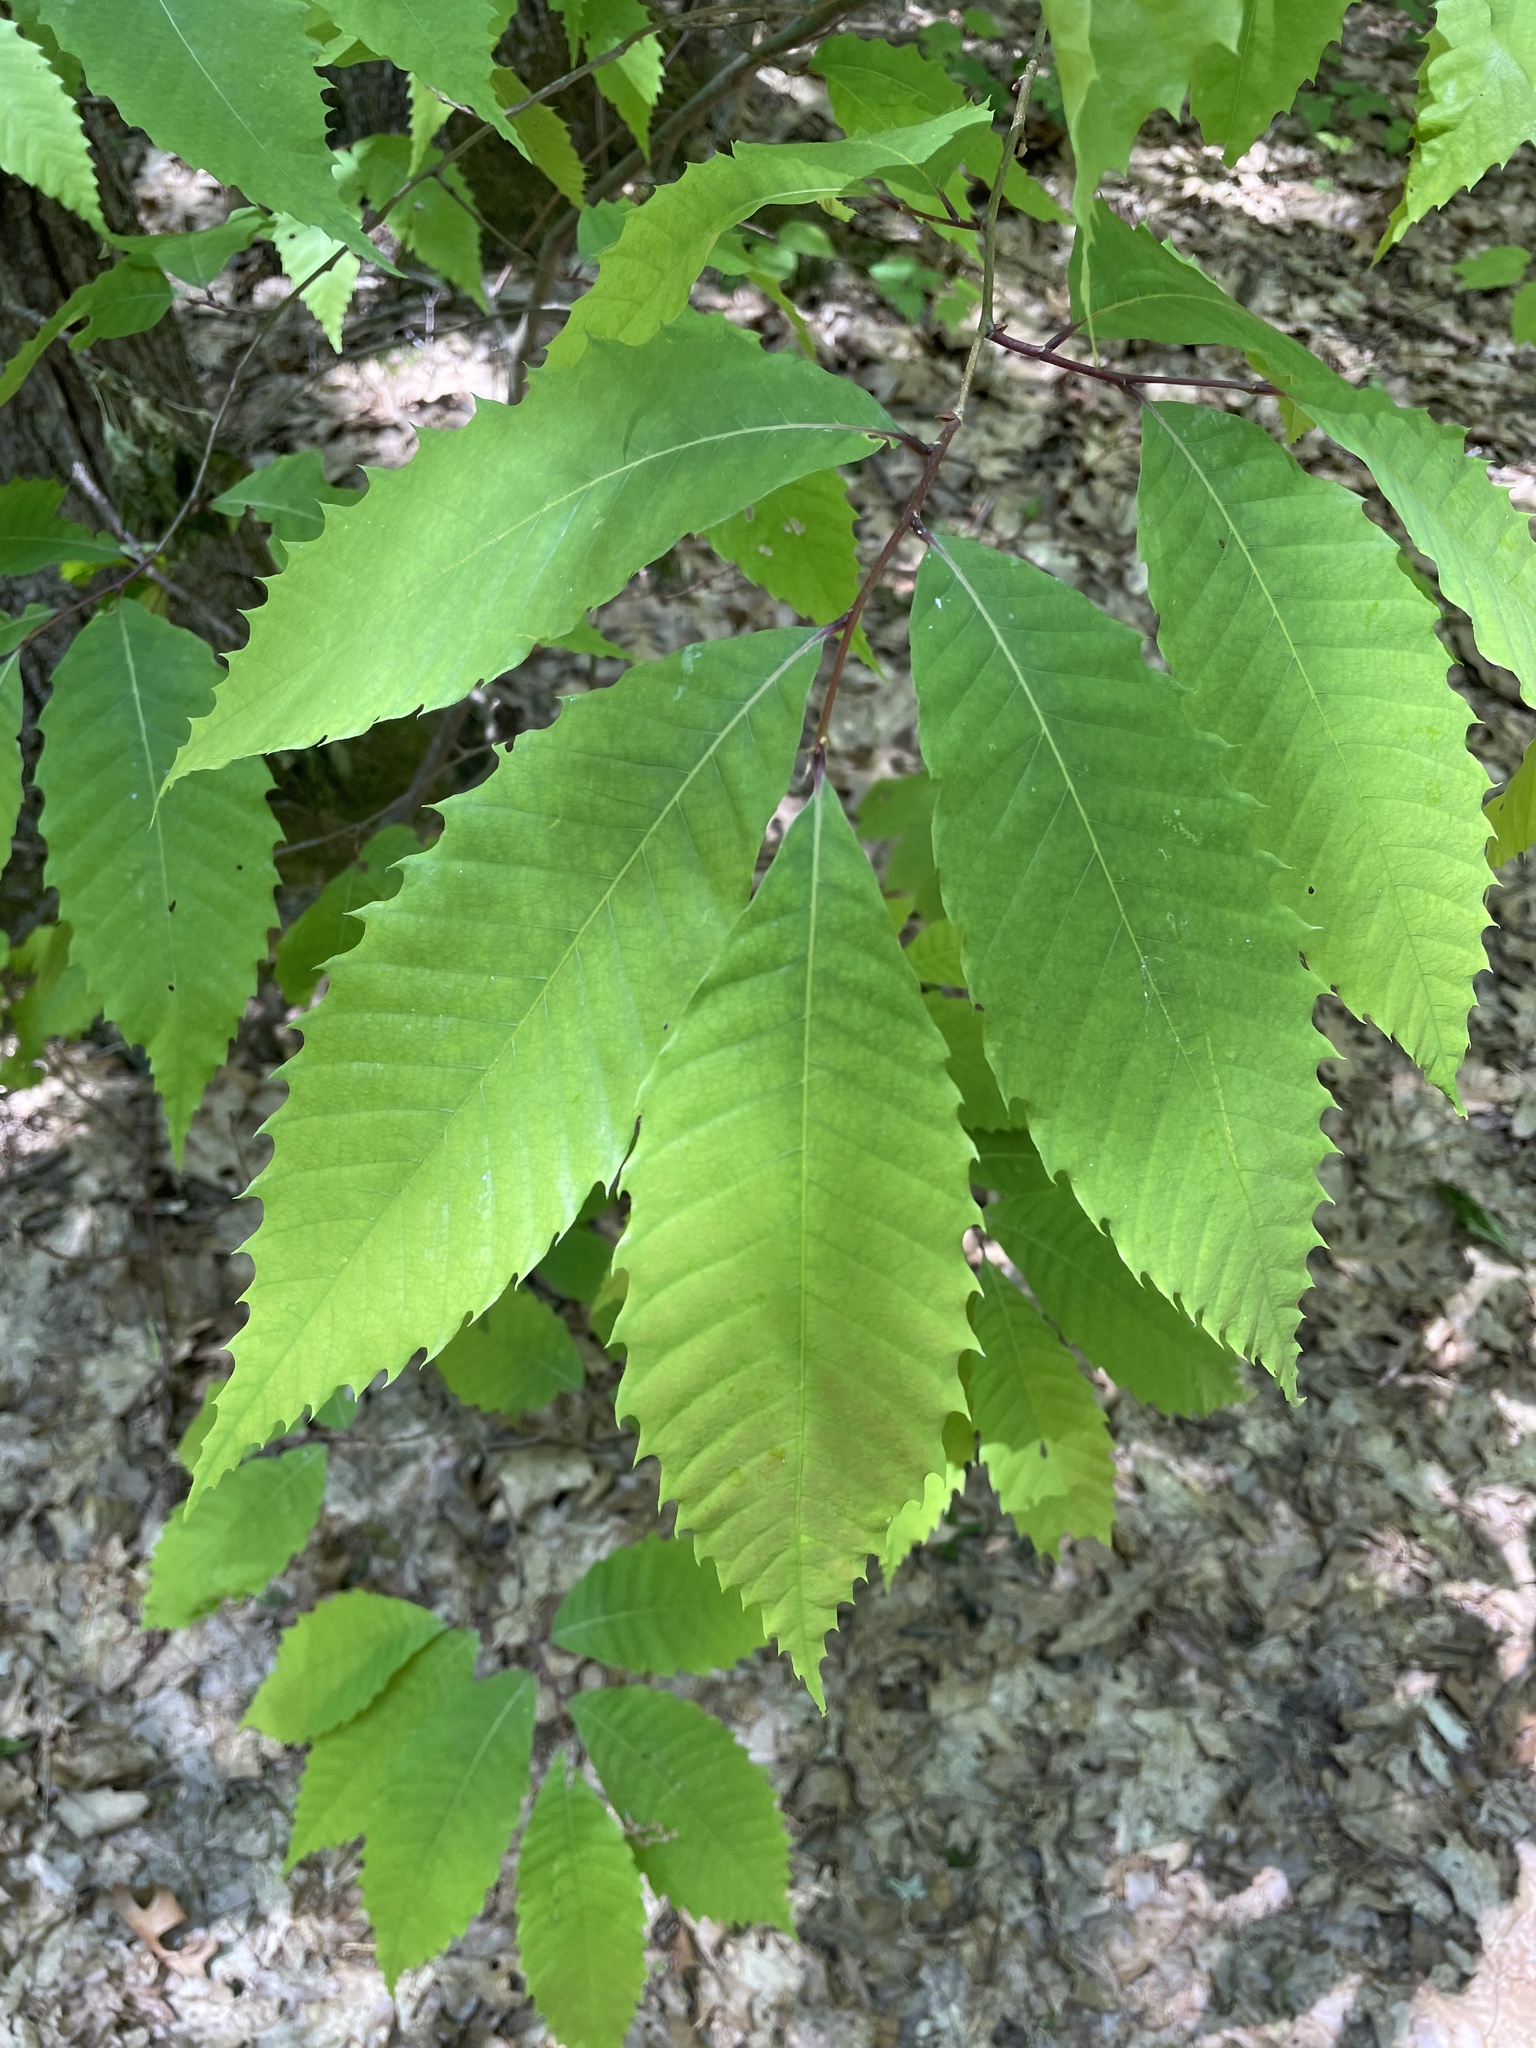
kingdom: Plantae
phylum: Tracheophyta
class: Magnoliopsida
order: Fagales
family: Fagaceae
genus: Castanea
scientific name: Castanea dentata
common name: American chestnut
